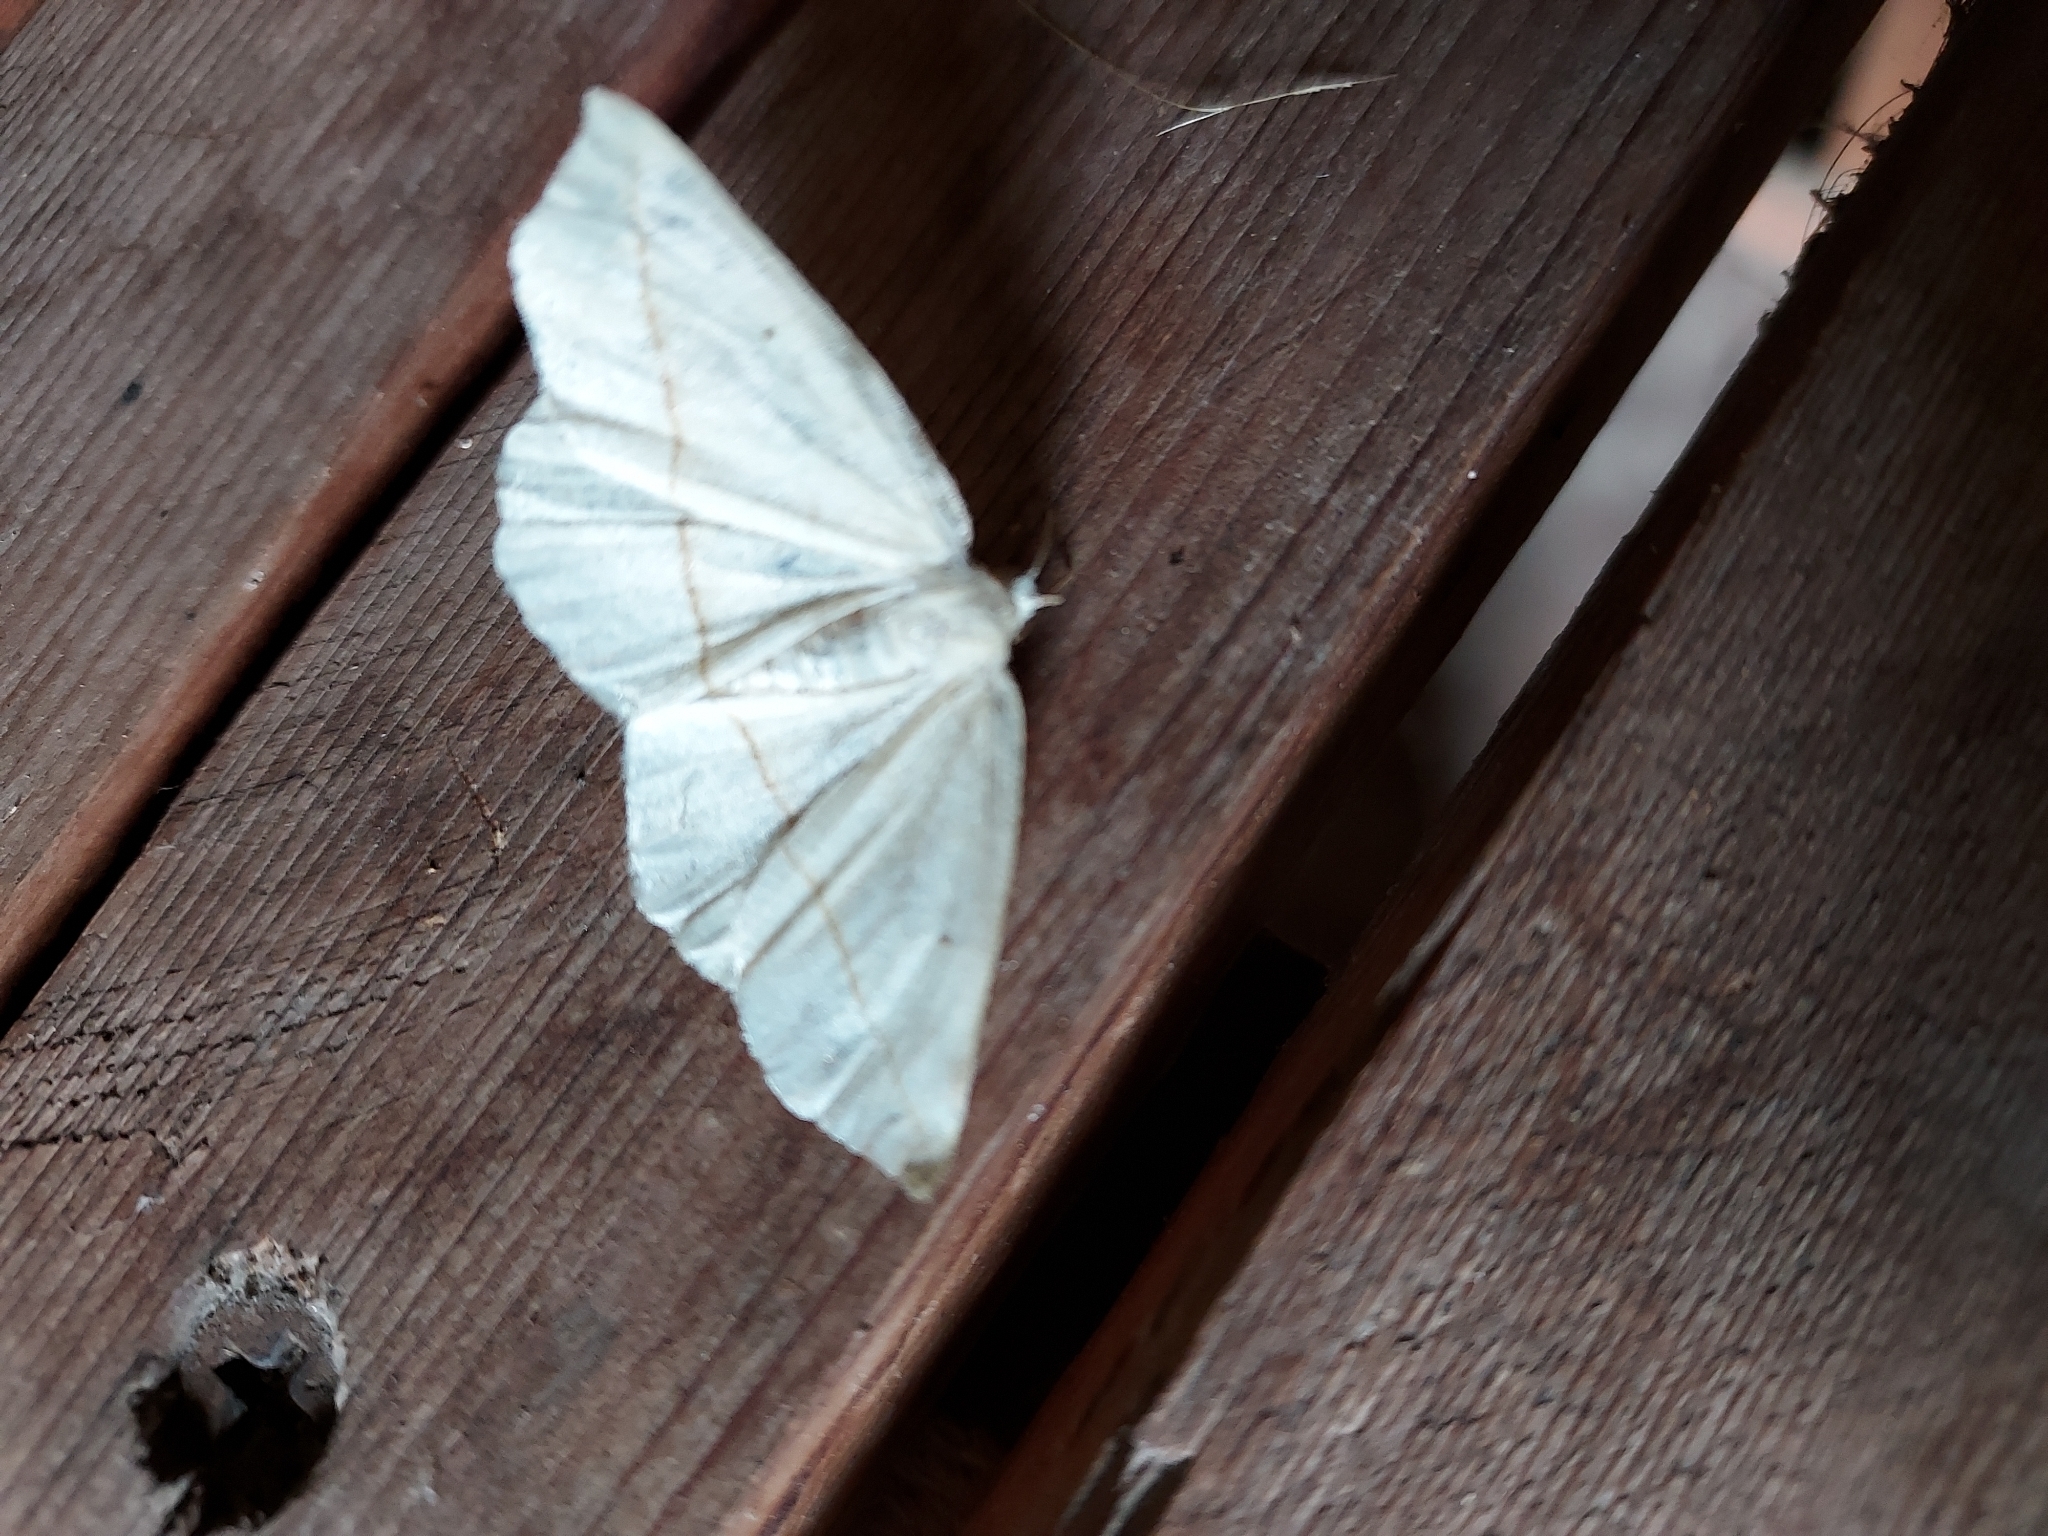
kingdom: Animalia
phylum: Arthropoda
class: Insecta
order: Lepidoptera
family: Geometridae
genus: Tetracis
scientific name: Tetracis cachexiata
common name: White slant-line
